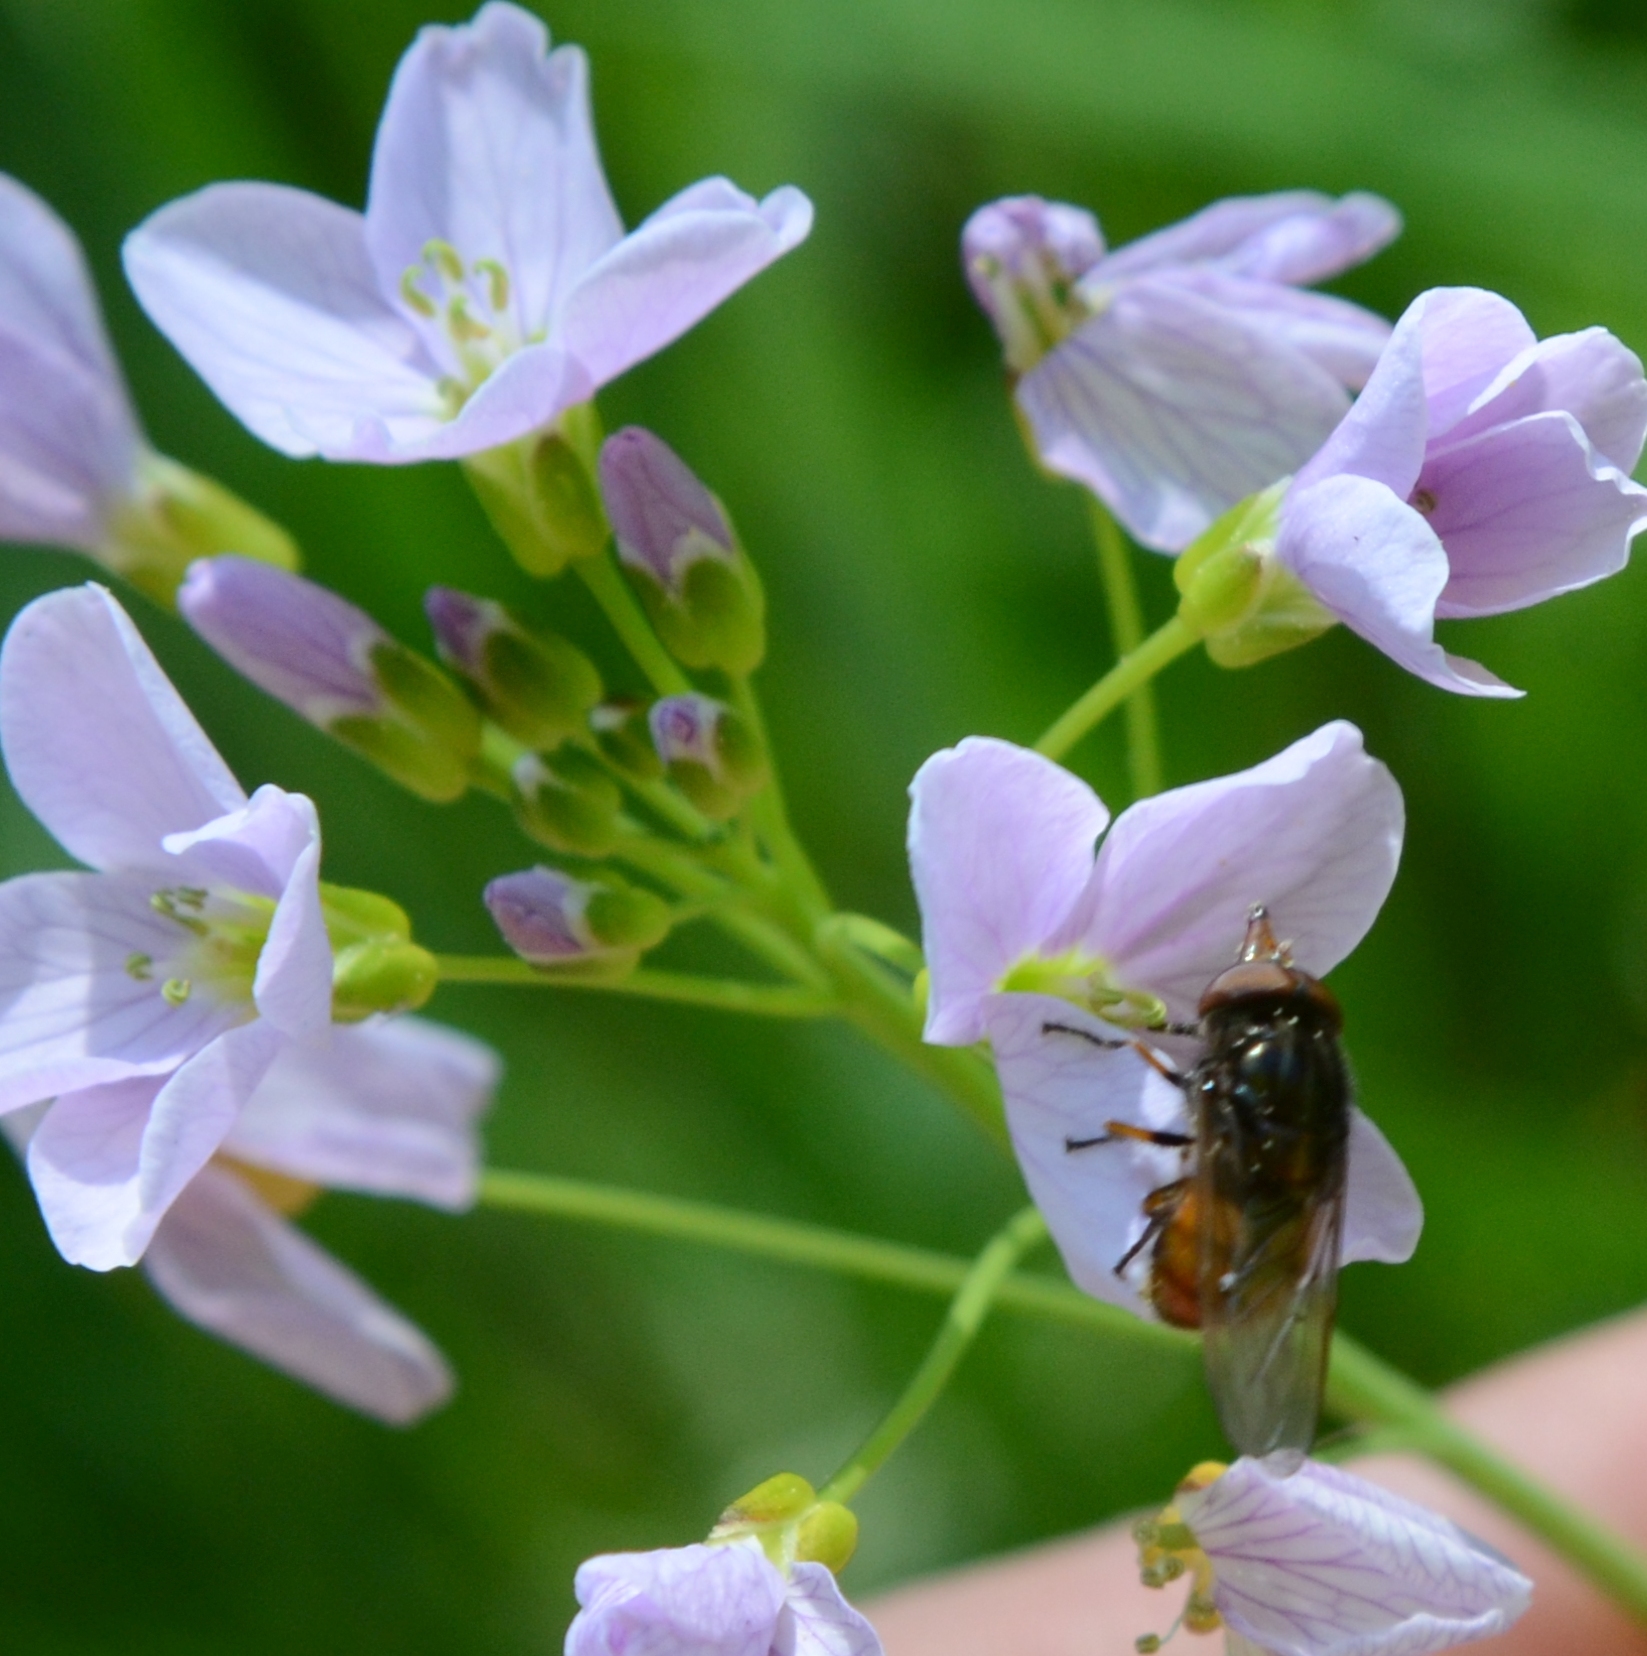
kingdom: Animalia
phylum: Arthropoda
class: Insecta
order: Diptera
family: Syrphidae
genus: Rhingia
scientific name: Rhingia campestris
